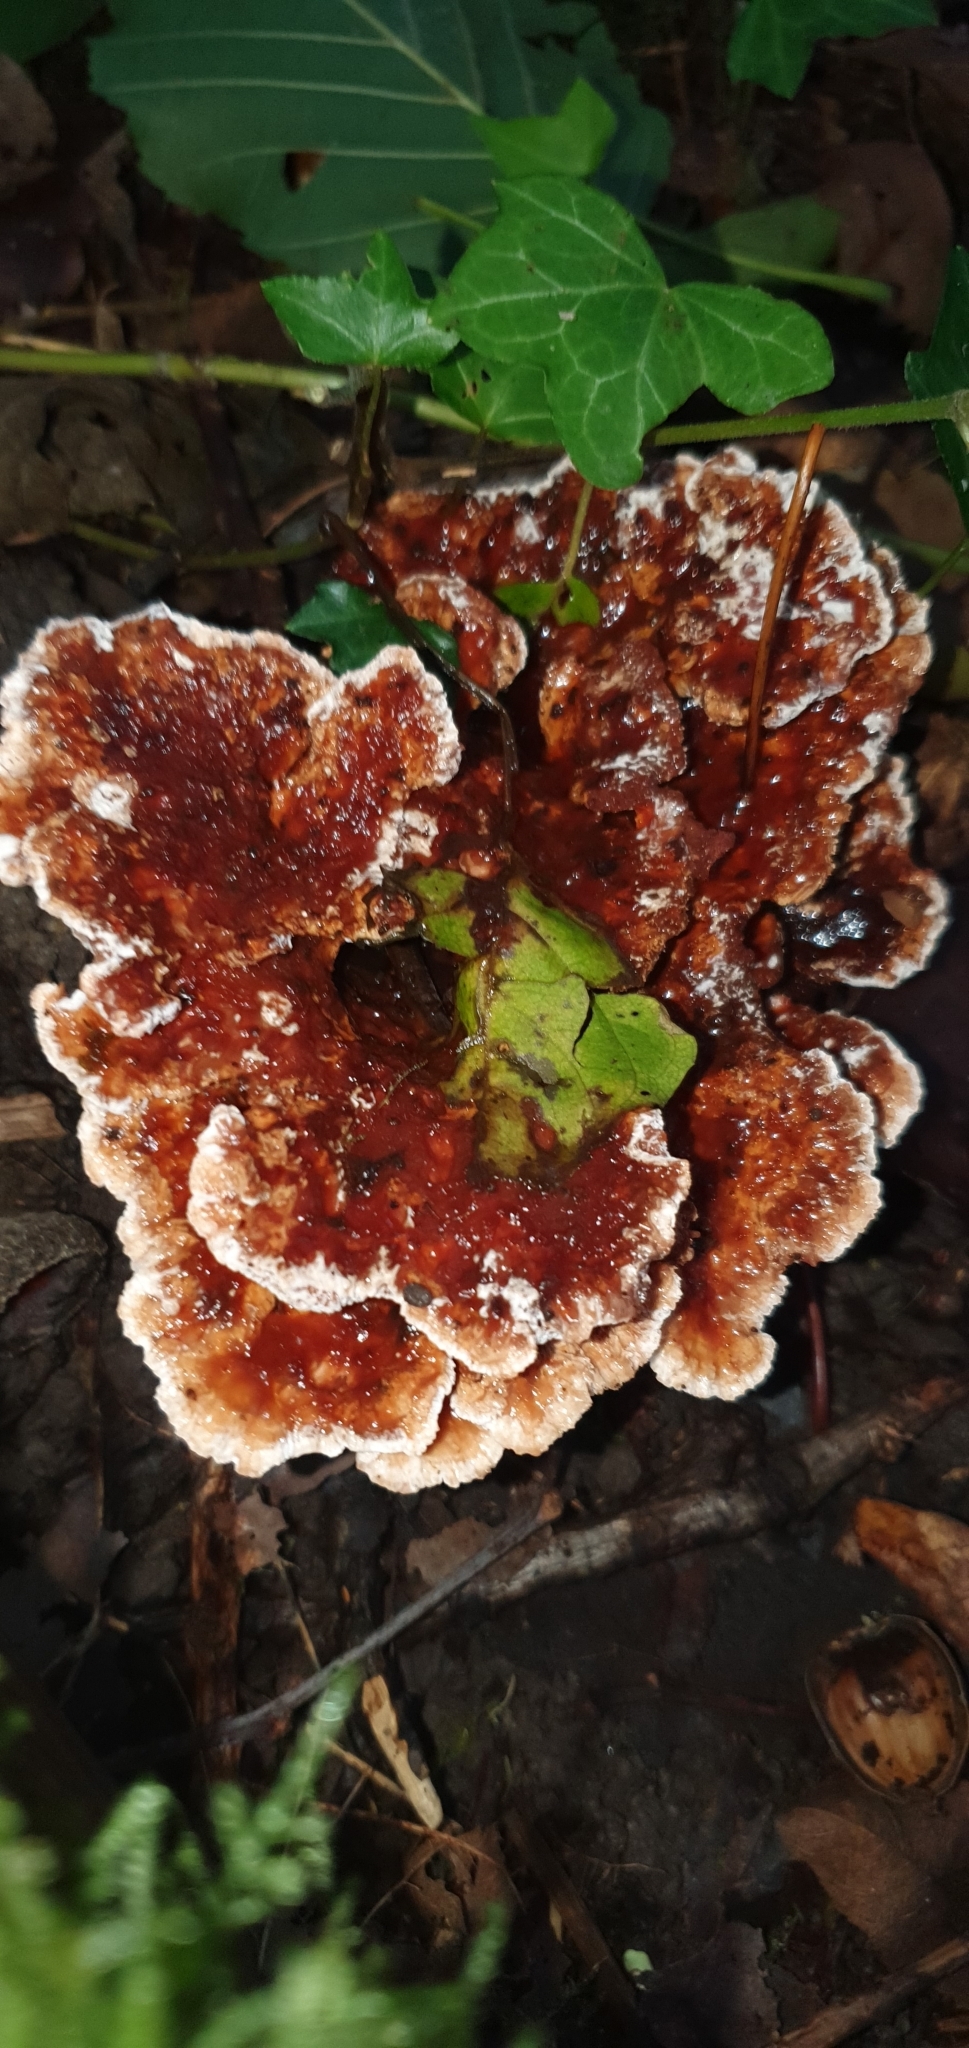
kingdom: Fungi
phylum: Basidiomycota
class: Agaricomycetes
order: Polyporales
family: Podoscyphaceae
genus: Abortiporus
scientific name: Abortiporus biennis
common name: Blushing rosette
